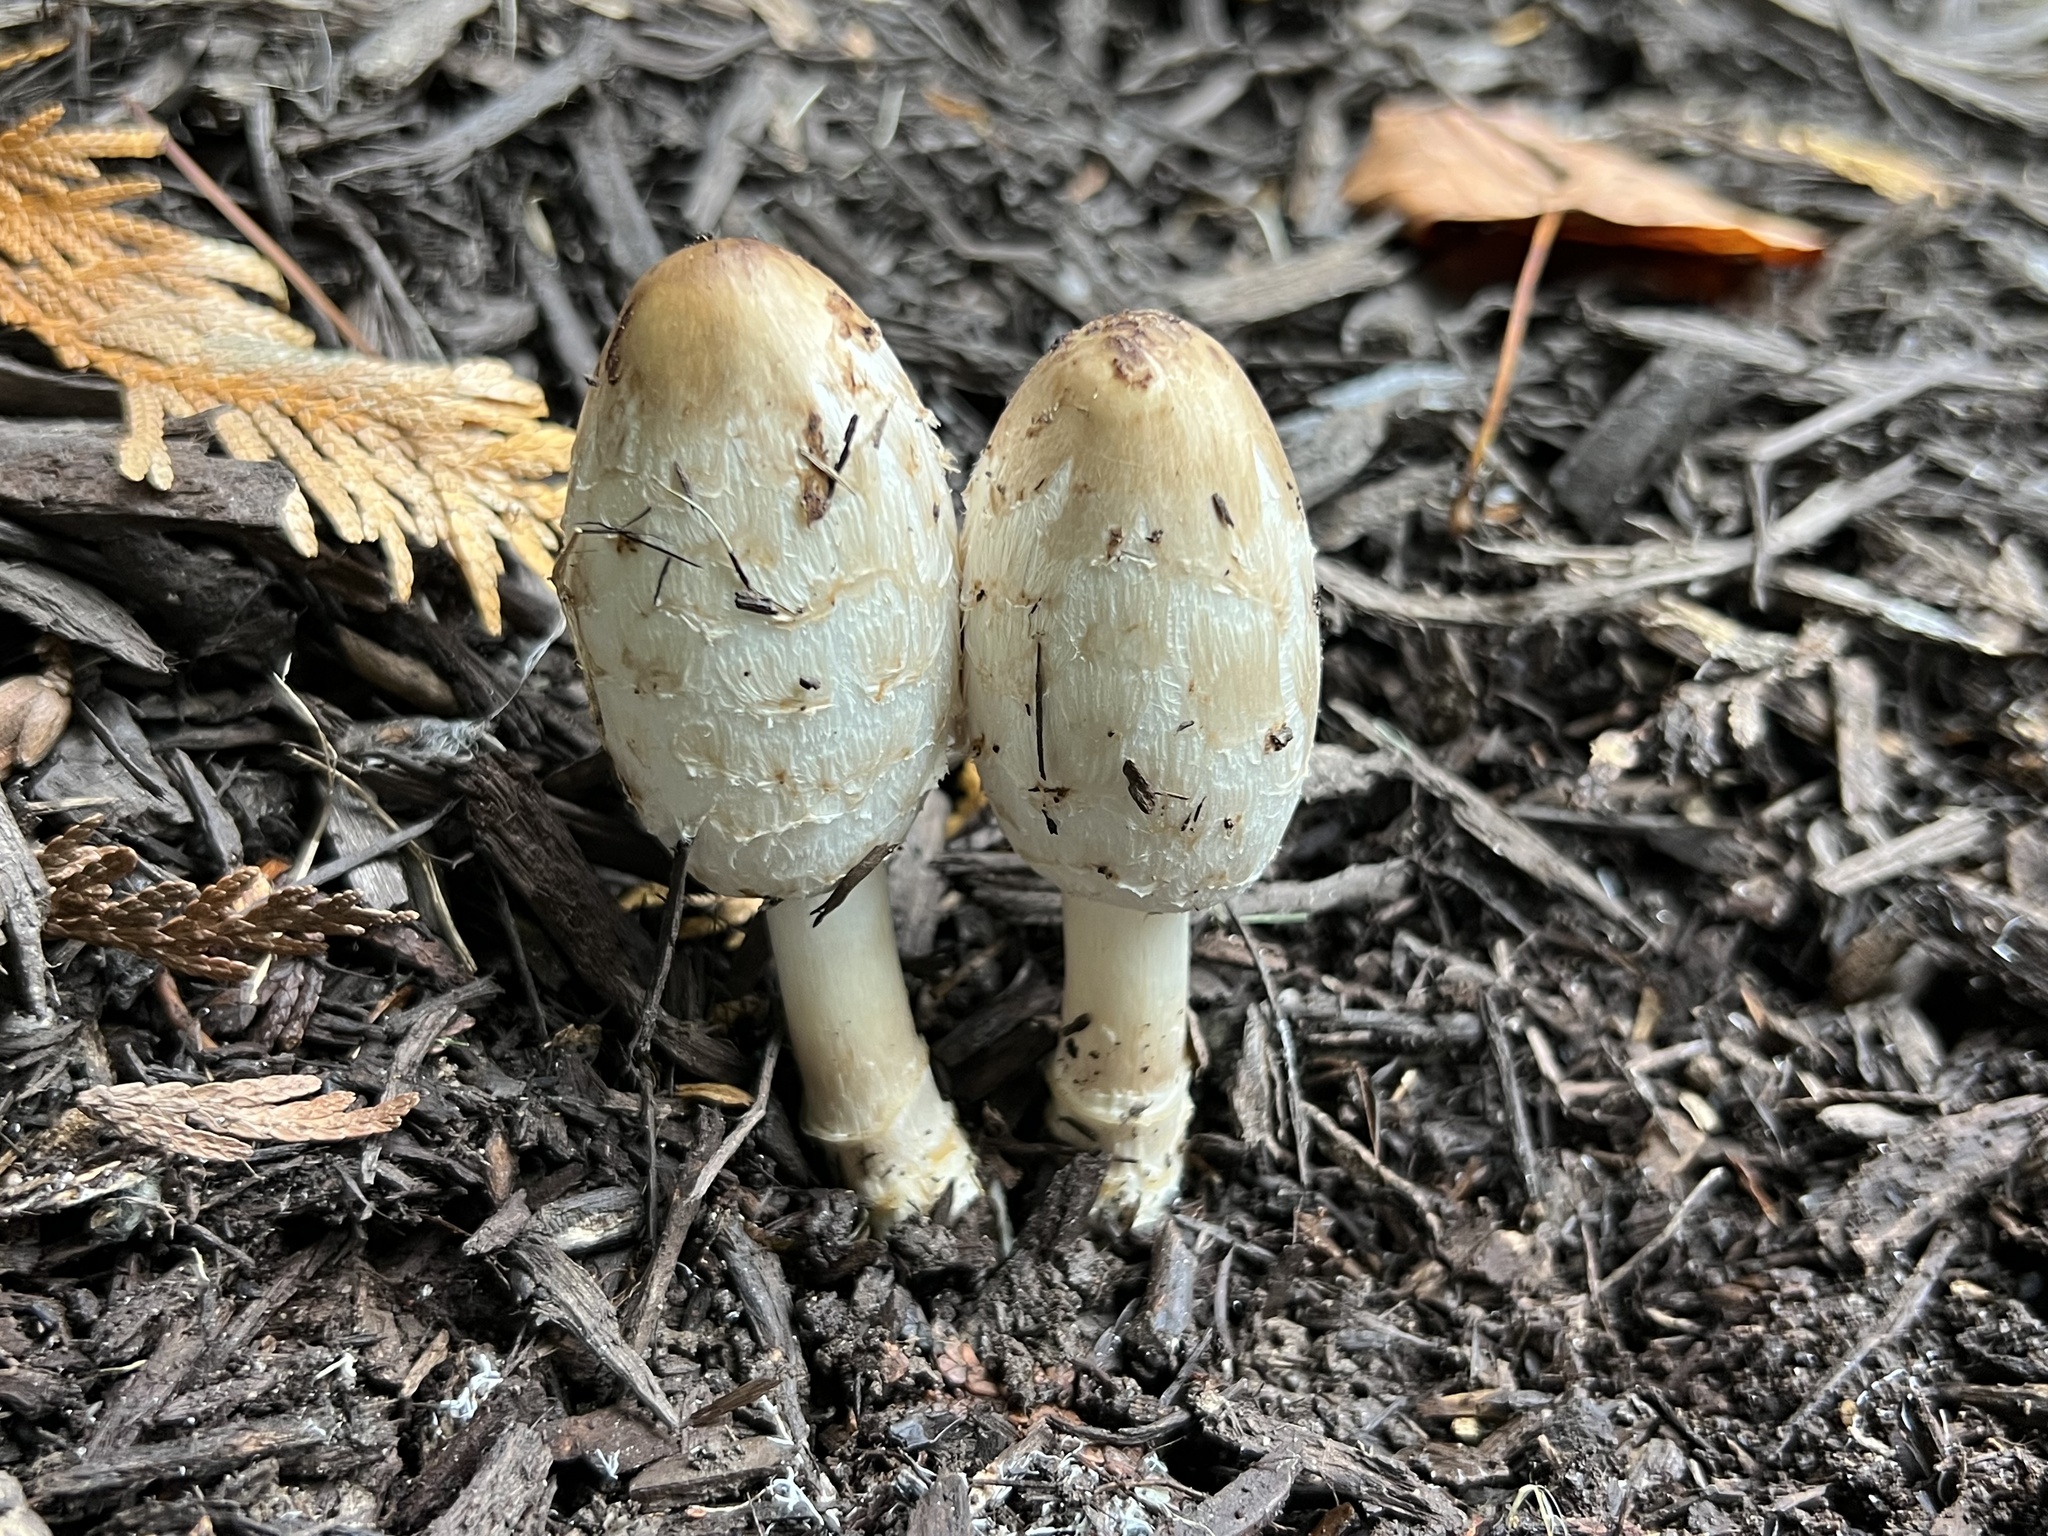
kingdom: Fungi
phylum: Basidiomycota
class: Agaricomycetes
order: Agaricales
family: Agaricaceae
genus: Coprinus
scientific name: Coprinus comatus
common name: Lawyer's wig
